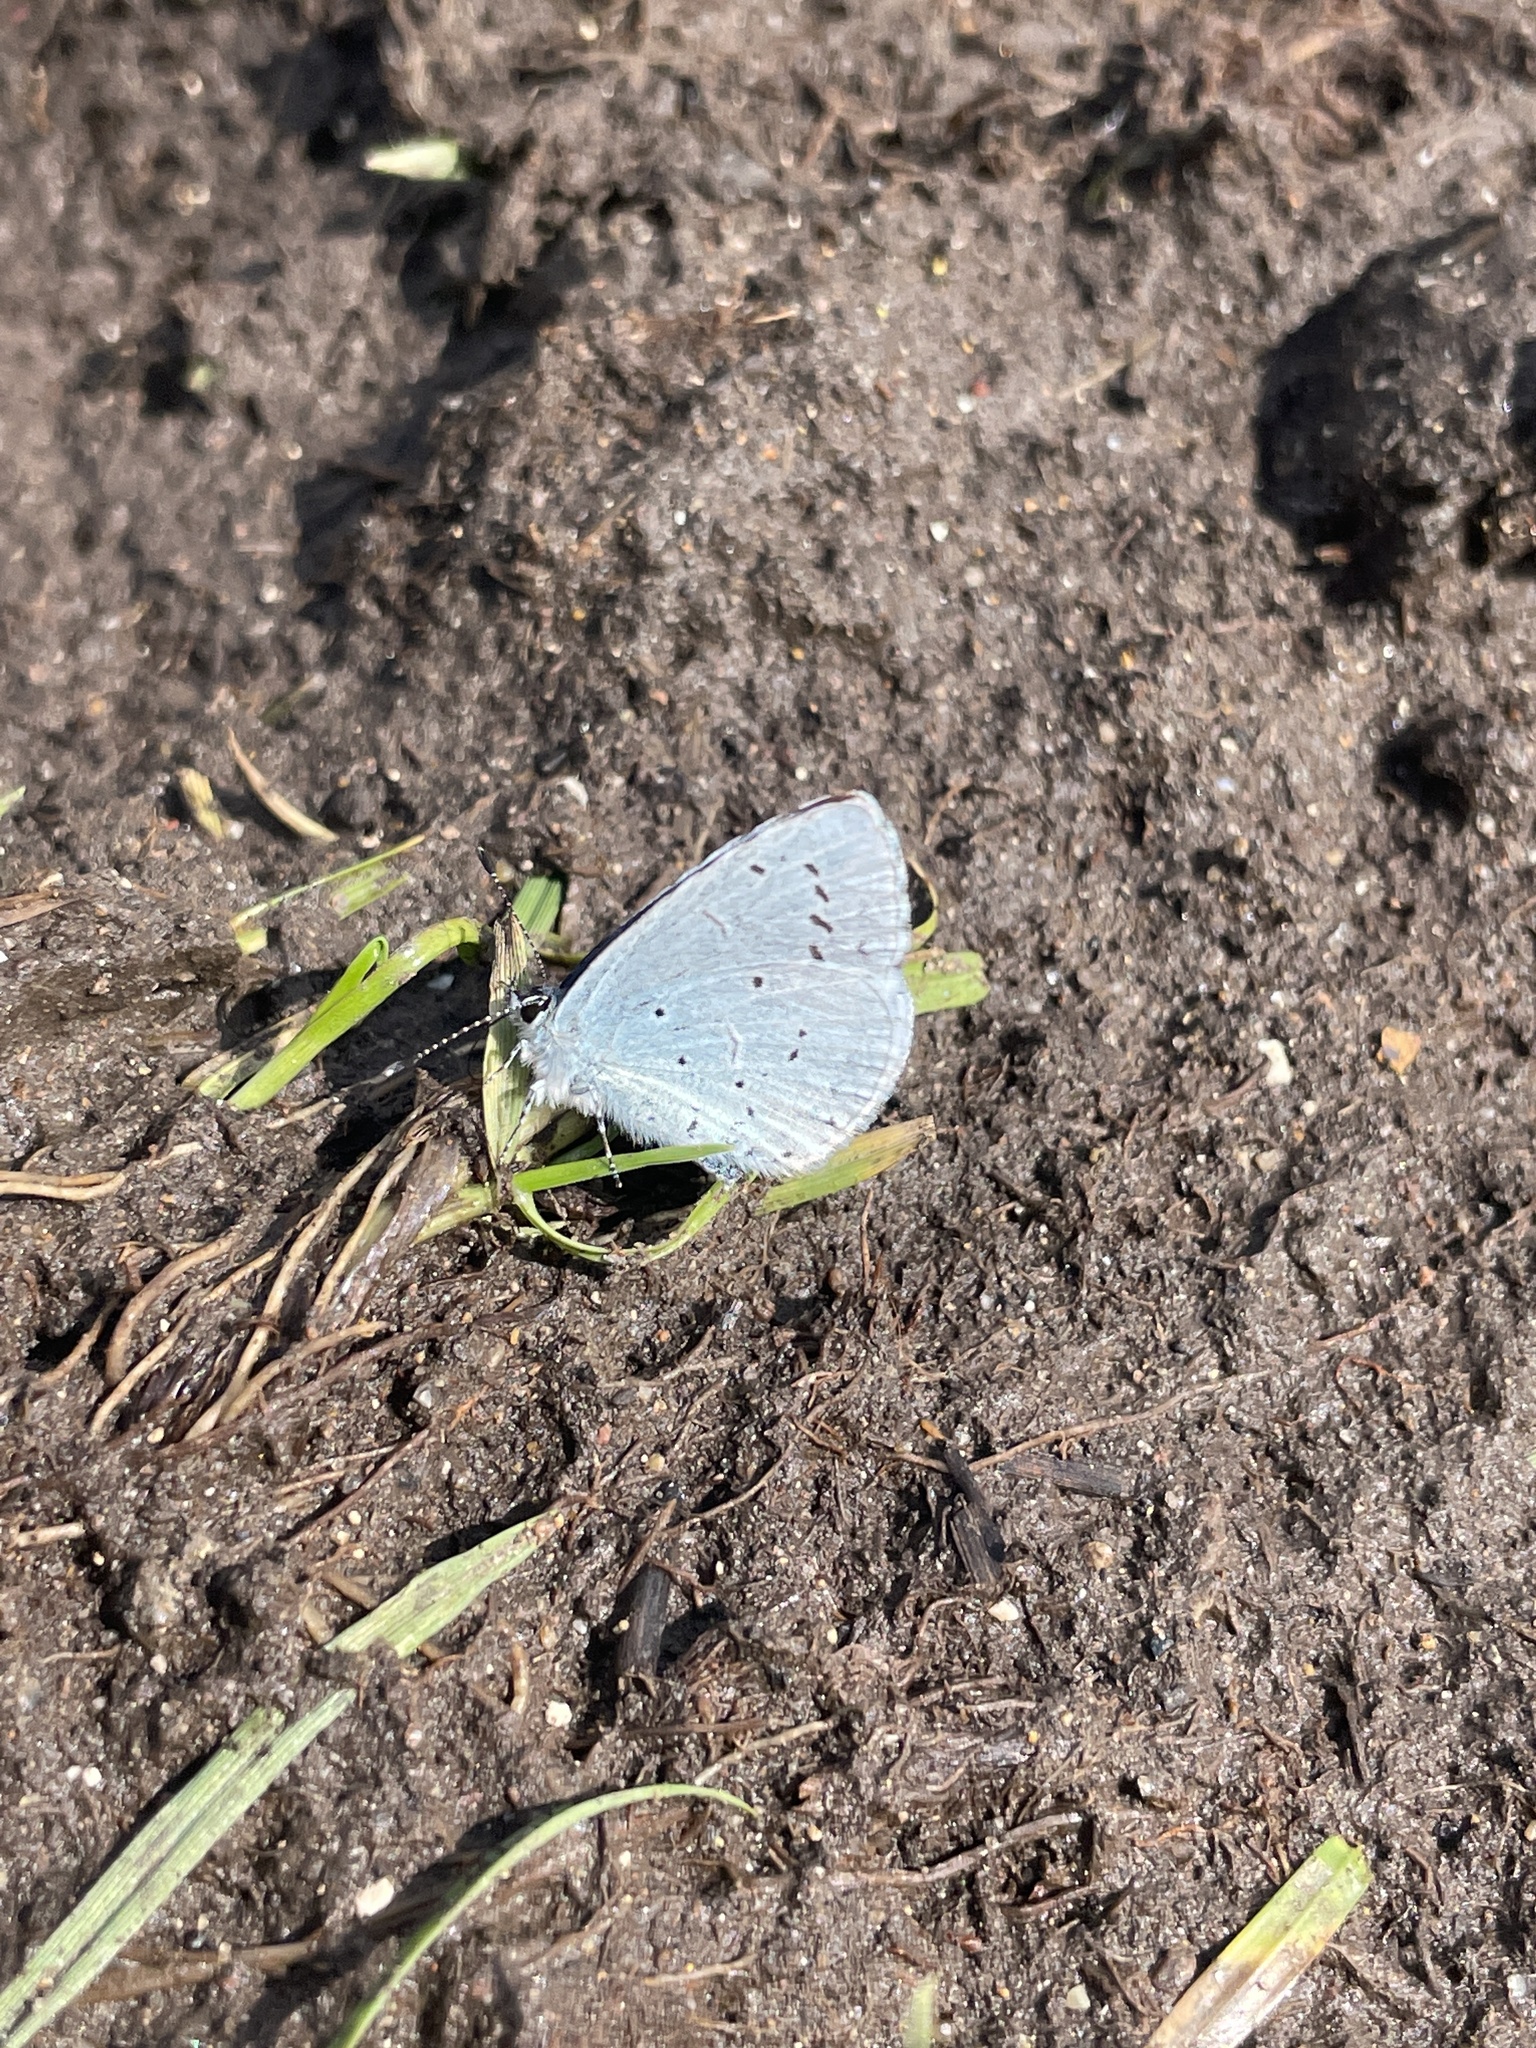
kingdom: Animalia
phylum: Arthropoda
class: Insecta
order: Lepidoptera
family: Lycaenidae
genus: Celastrina
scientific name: Celastrina argiolus
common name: Holly blue
